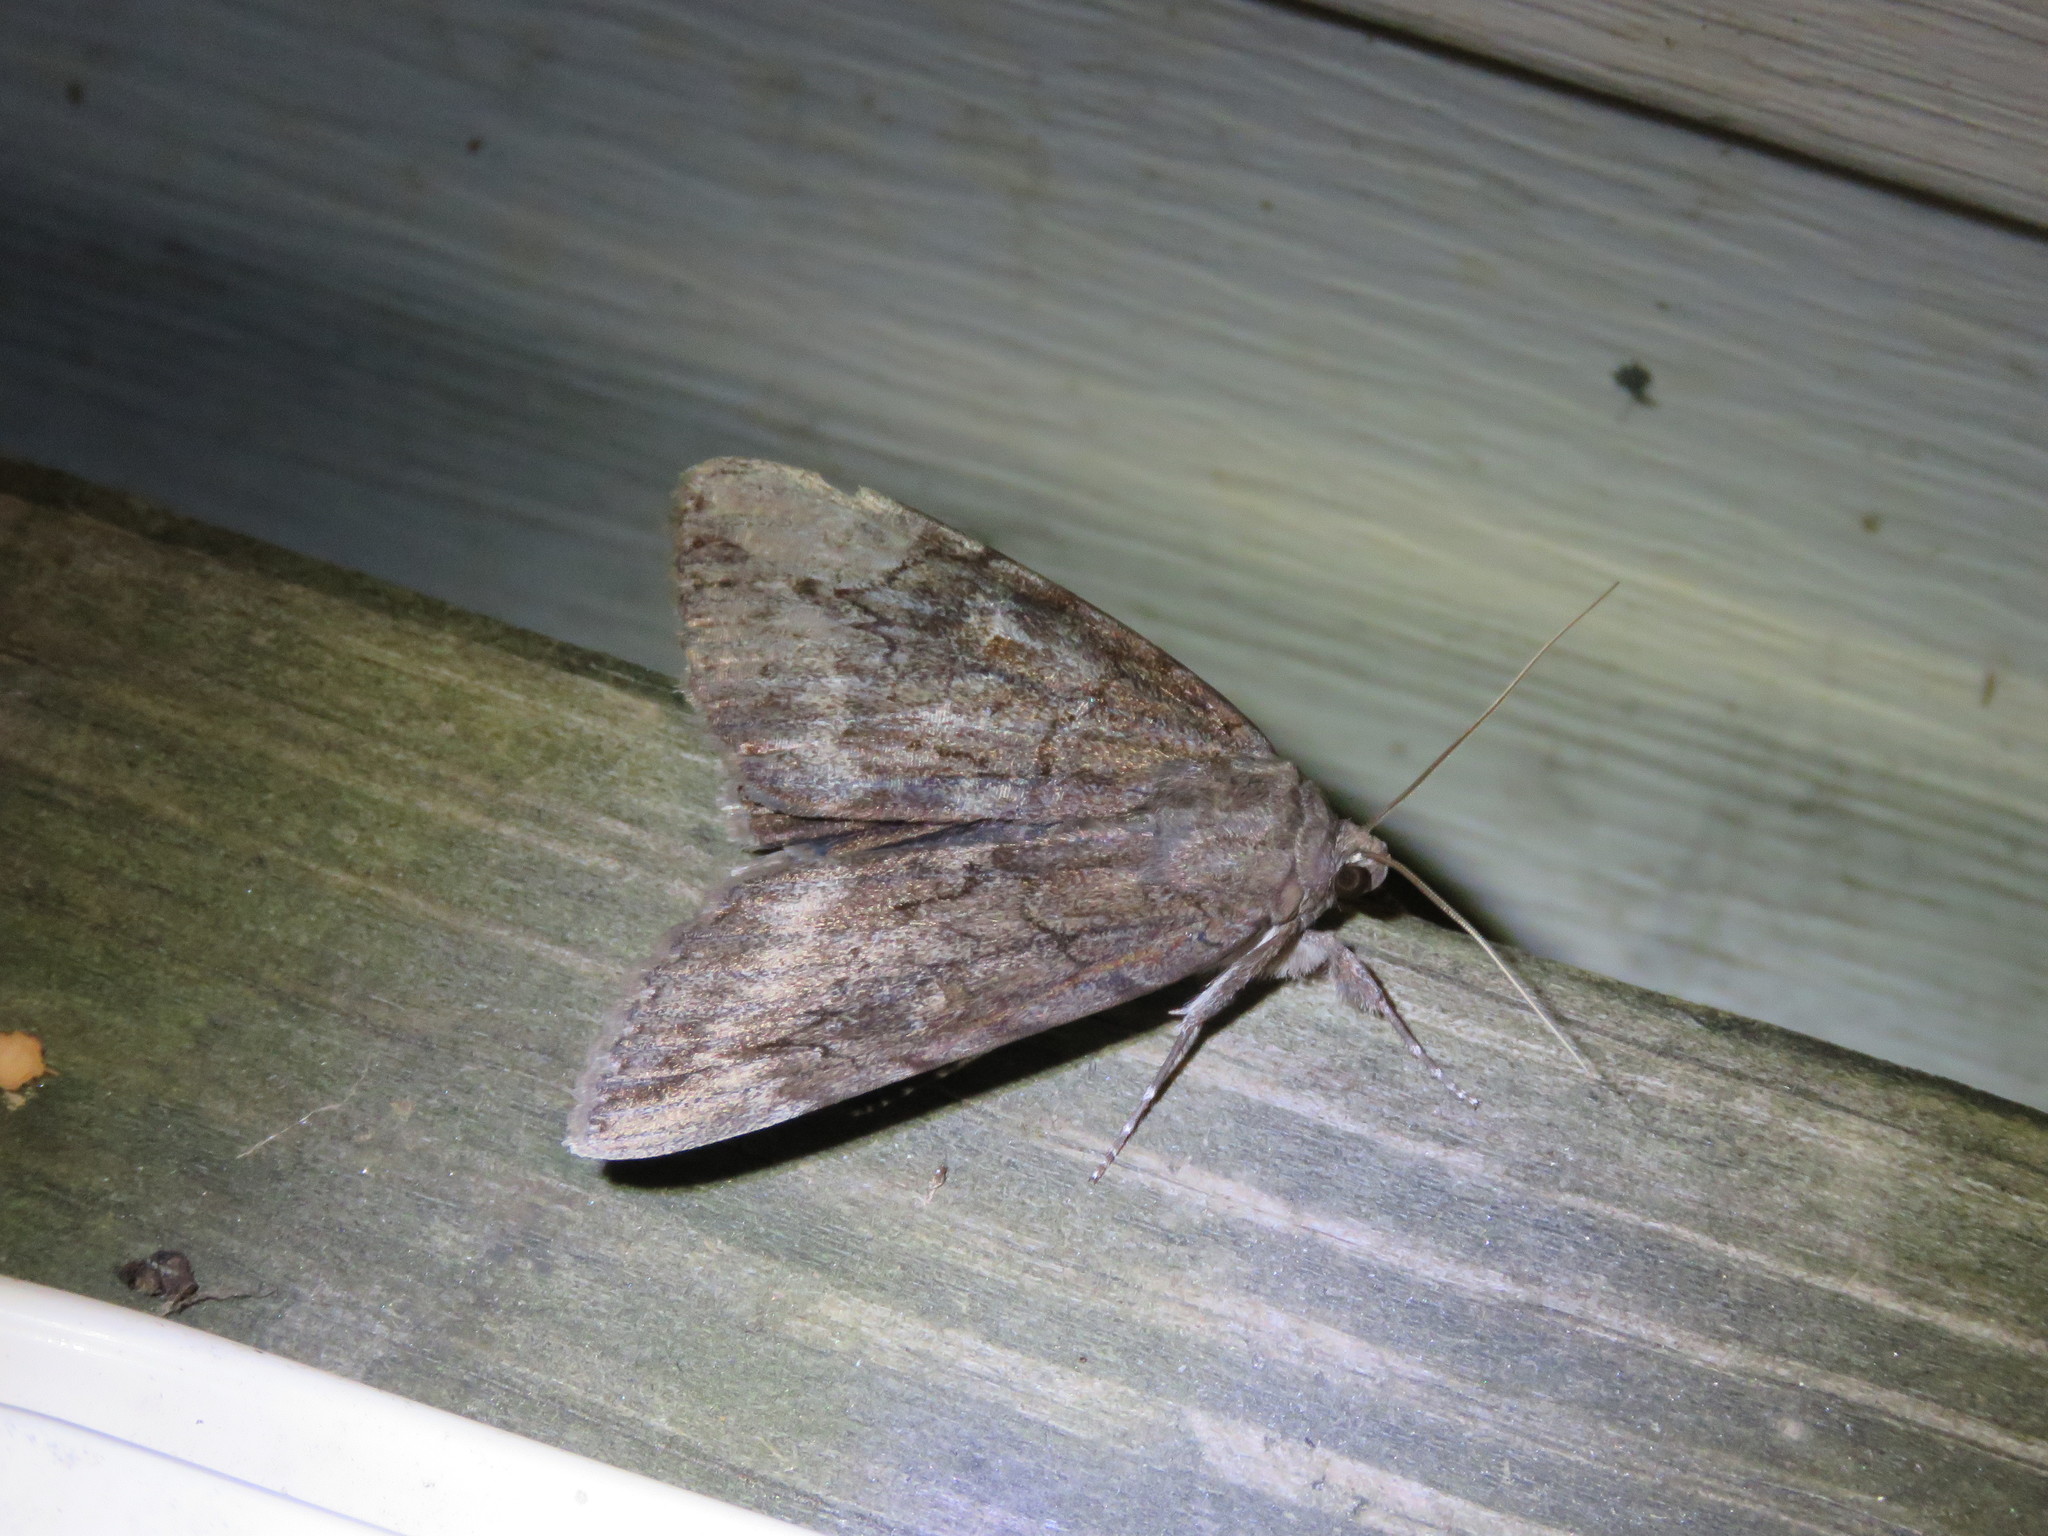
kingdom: Animalia
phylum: Arthropoda
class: Insecta
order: Lepidoptera
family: Erebidae
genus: Catocala
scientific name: Catocala residua
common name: Residua underwing
